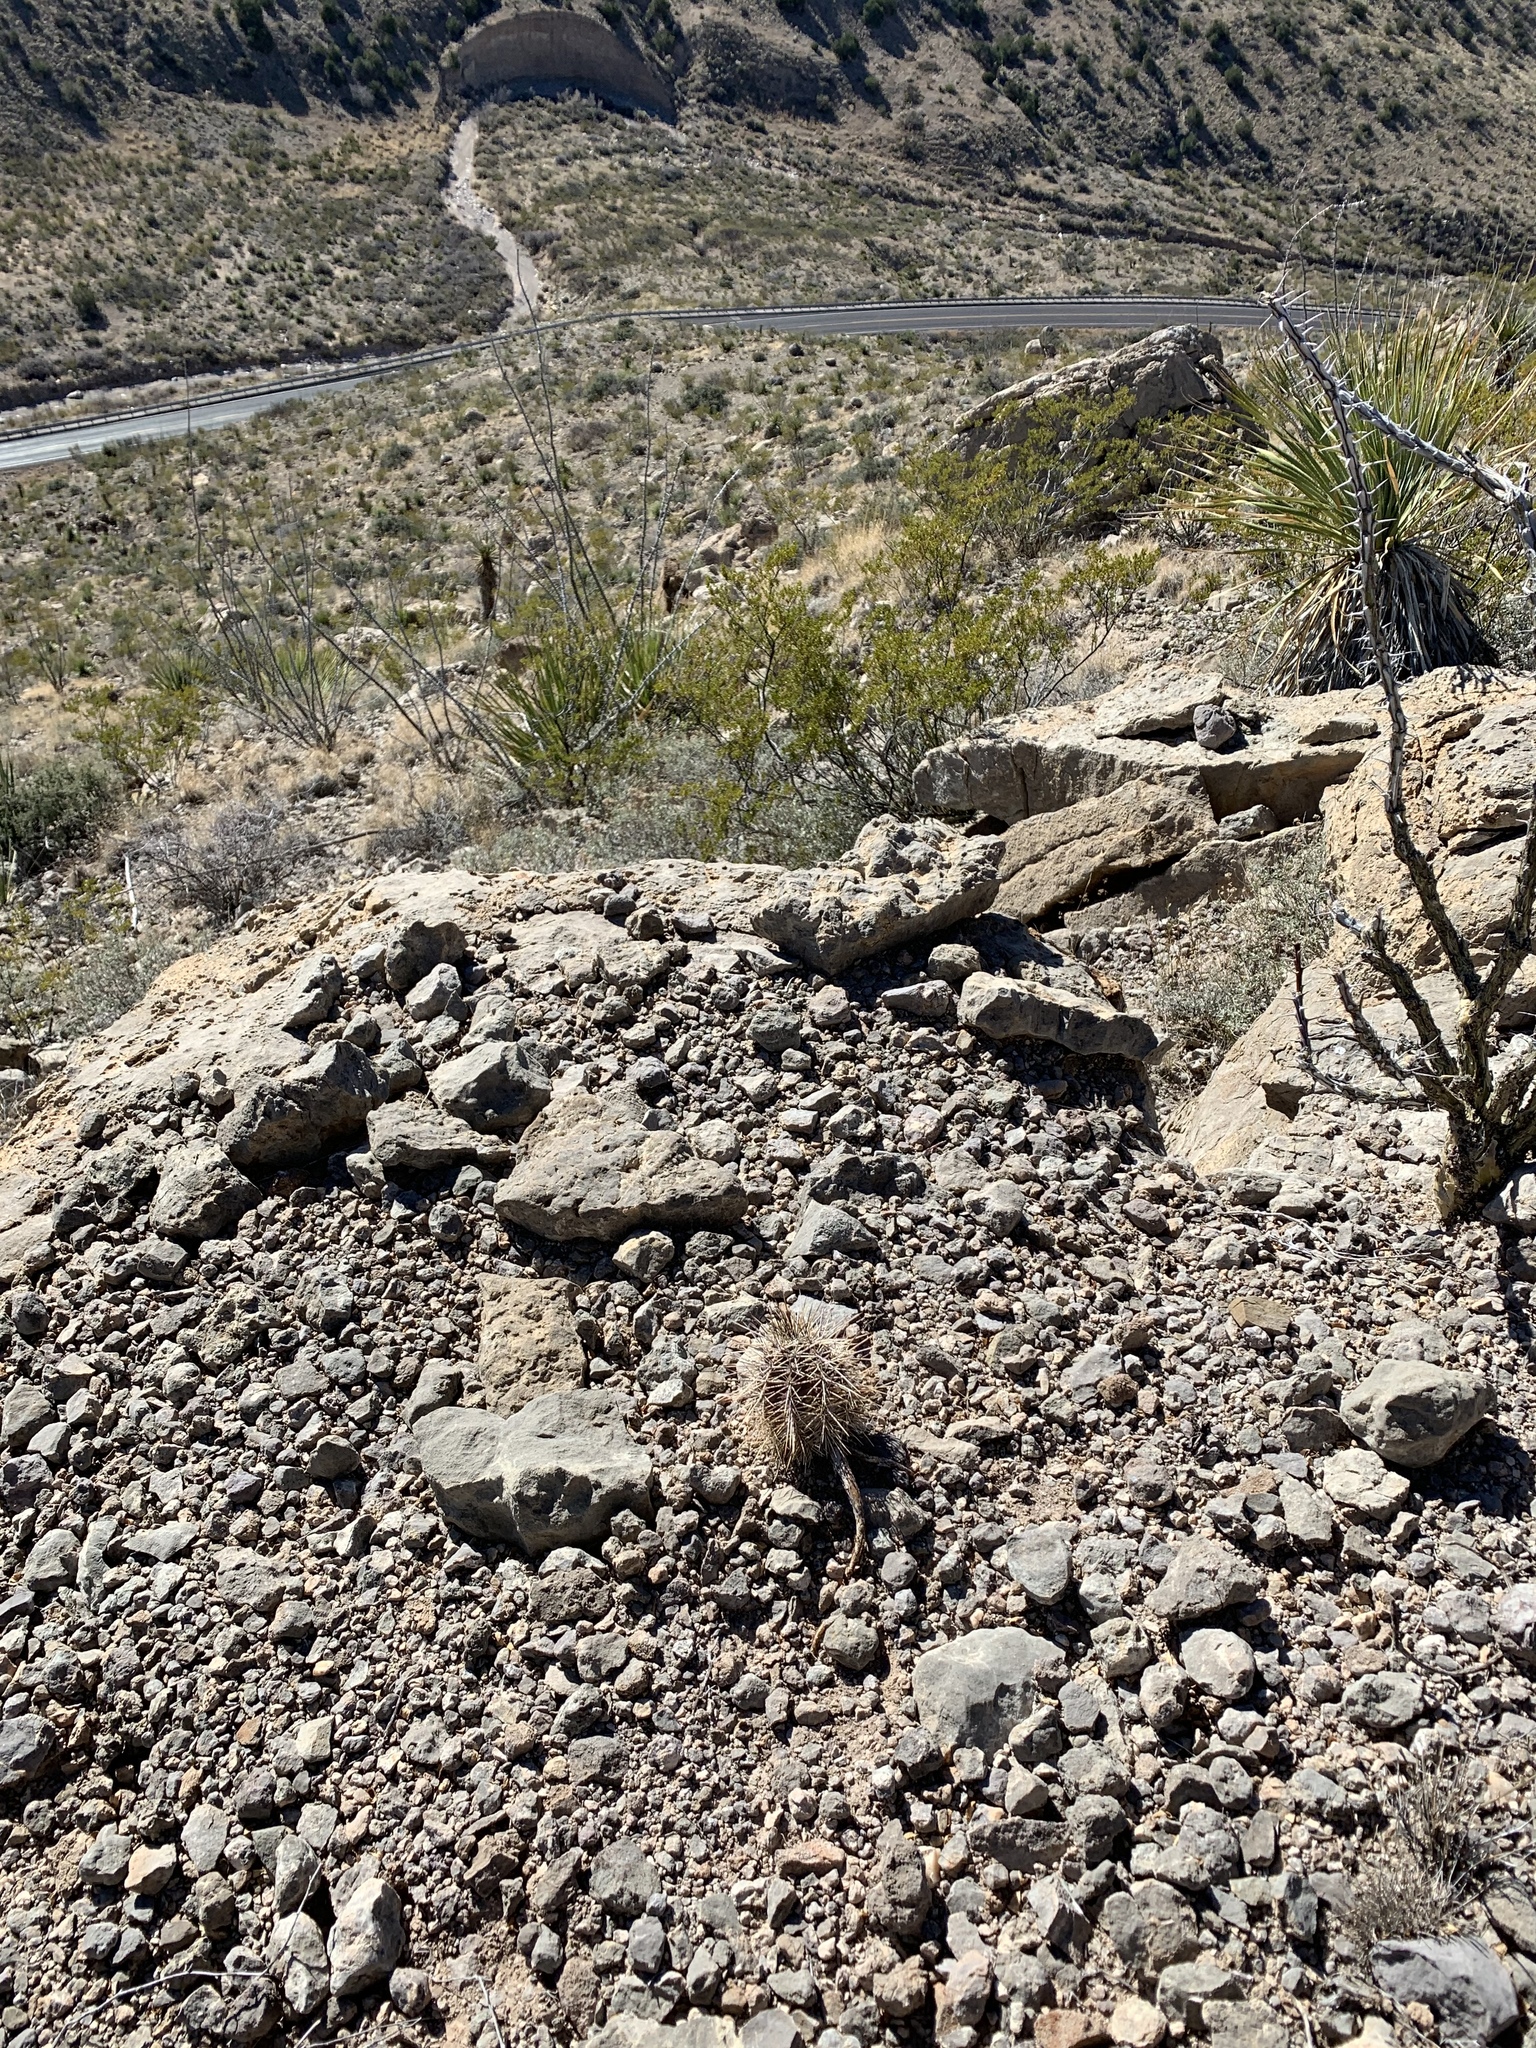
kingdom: Plantae
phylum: Tracheophyta
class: Magnoliopsida
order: Caryophyllales
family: Cactaceae
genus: Echinocereus
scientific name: Echinocereus coccineus
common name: Scarlet hedgehog cactus
